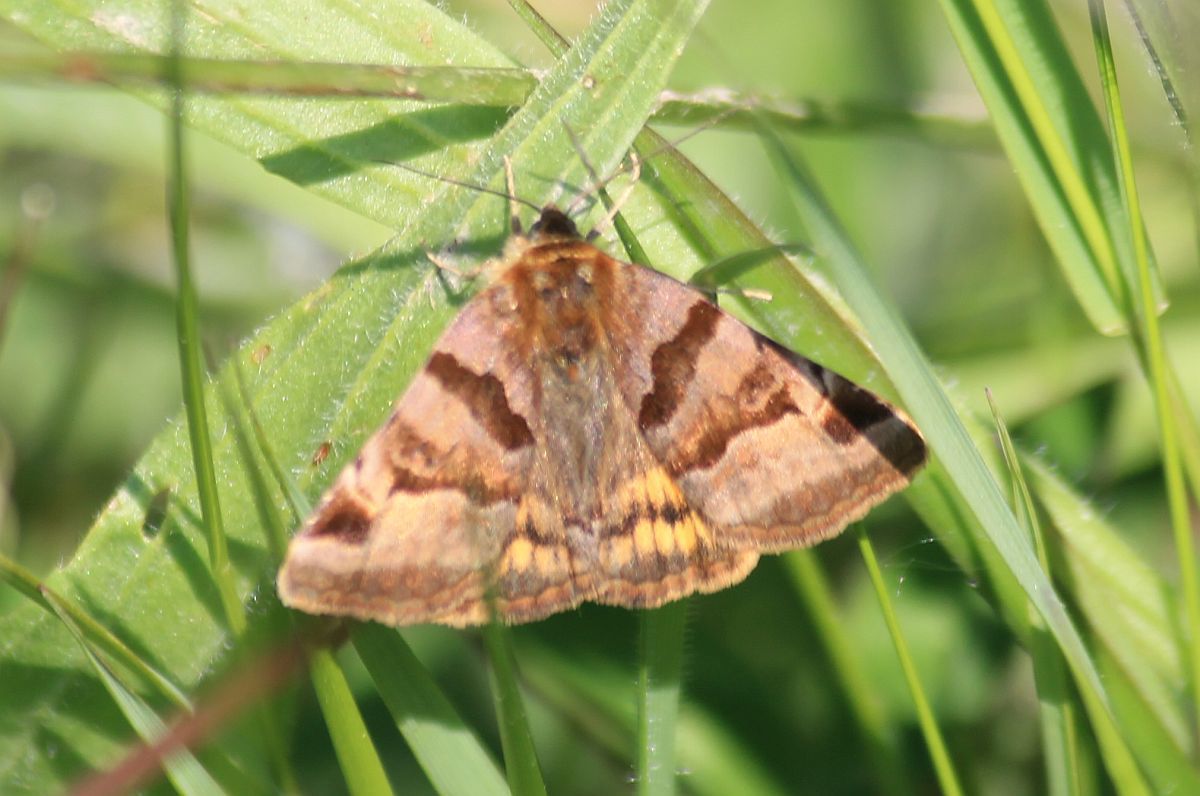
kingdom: Animalia
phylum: Arthropoda
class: Insecta
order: Lepidoptera
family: Erebidae
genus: Euclidia
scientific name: Euclidia glyphica
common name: Burnet companion
